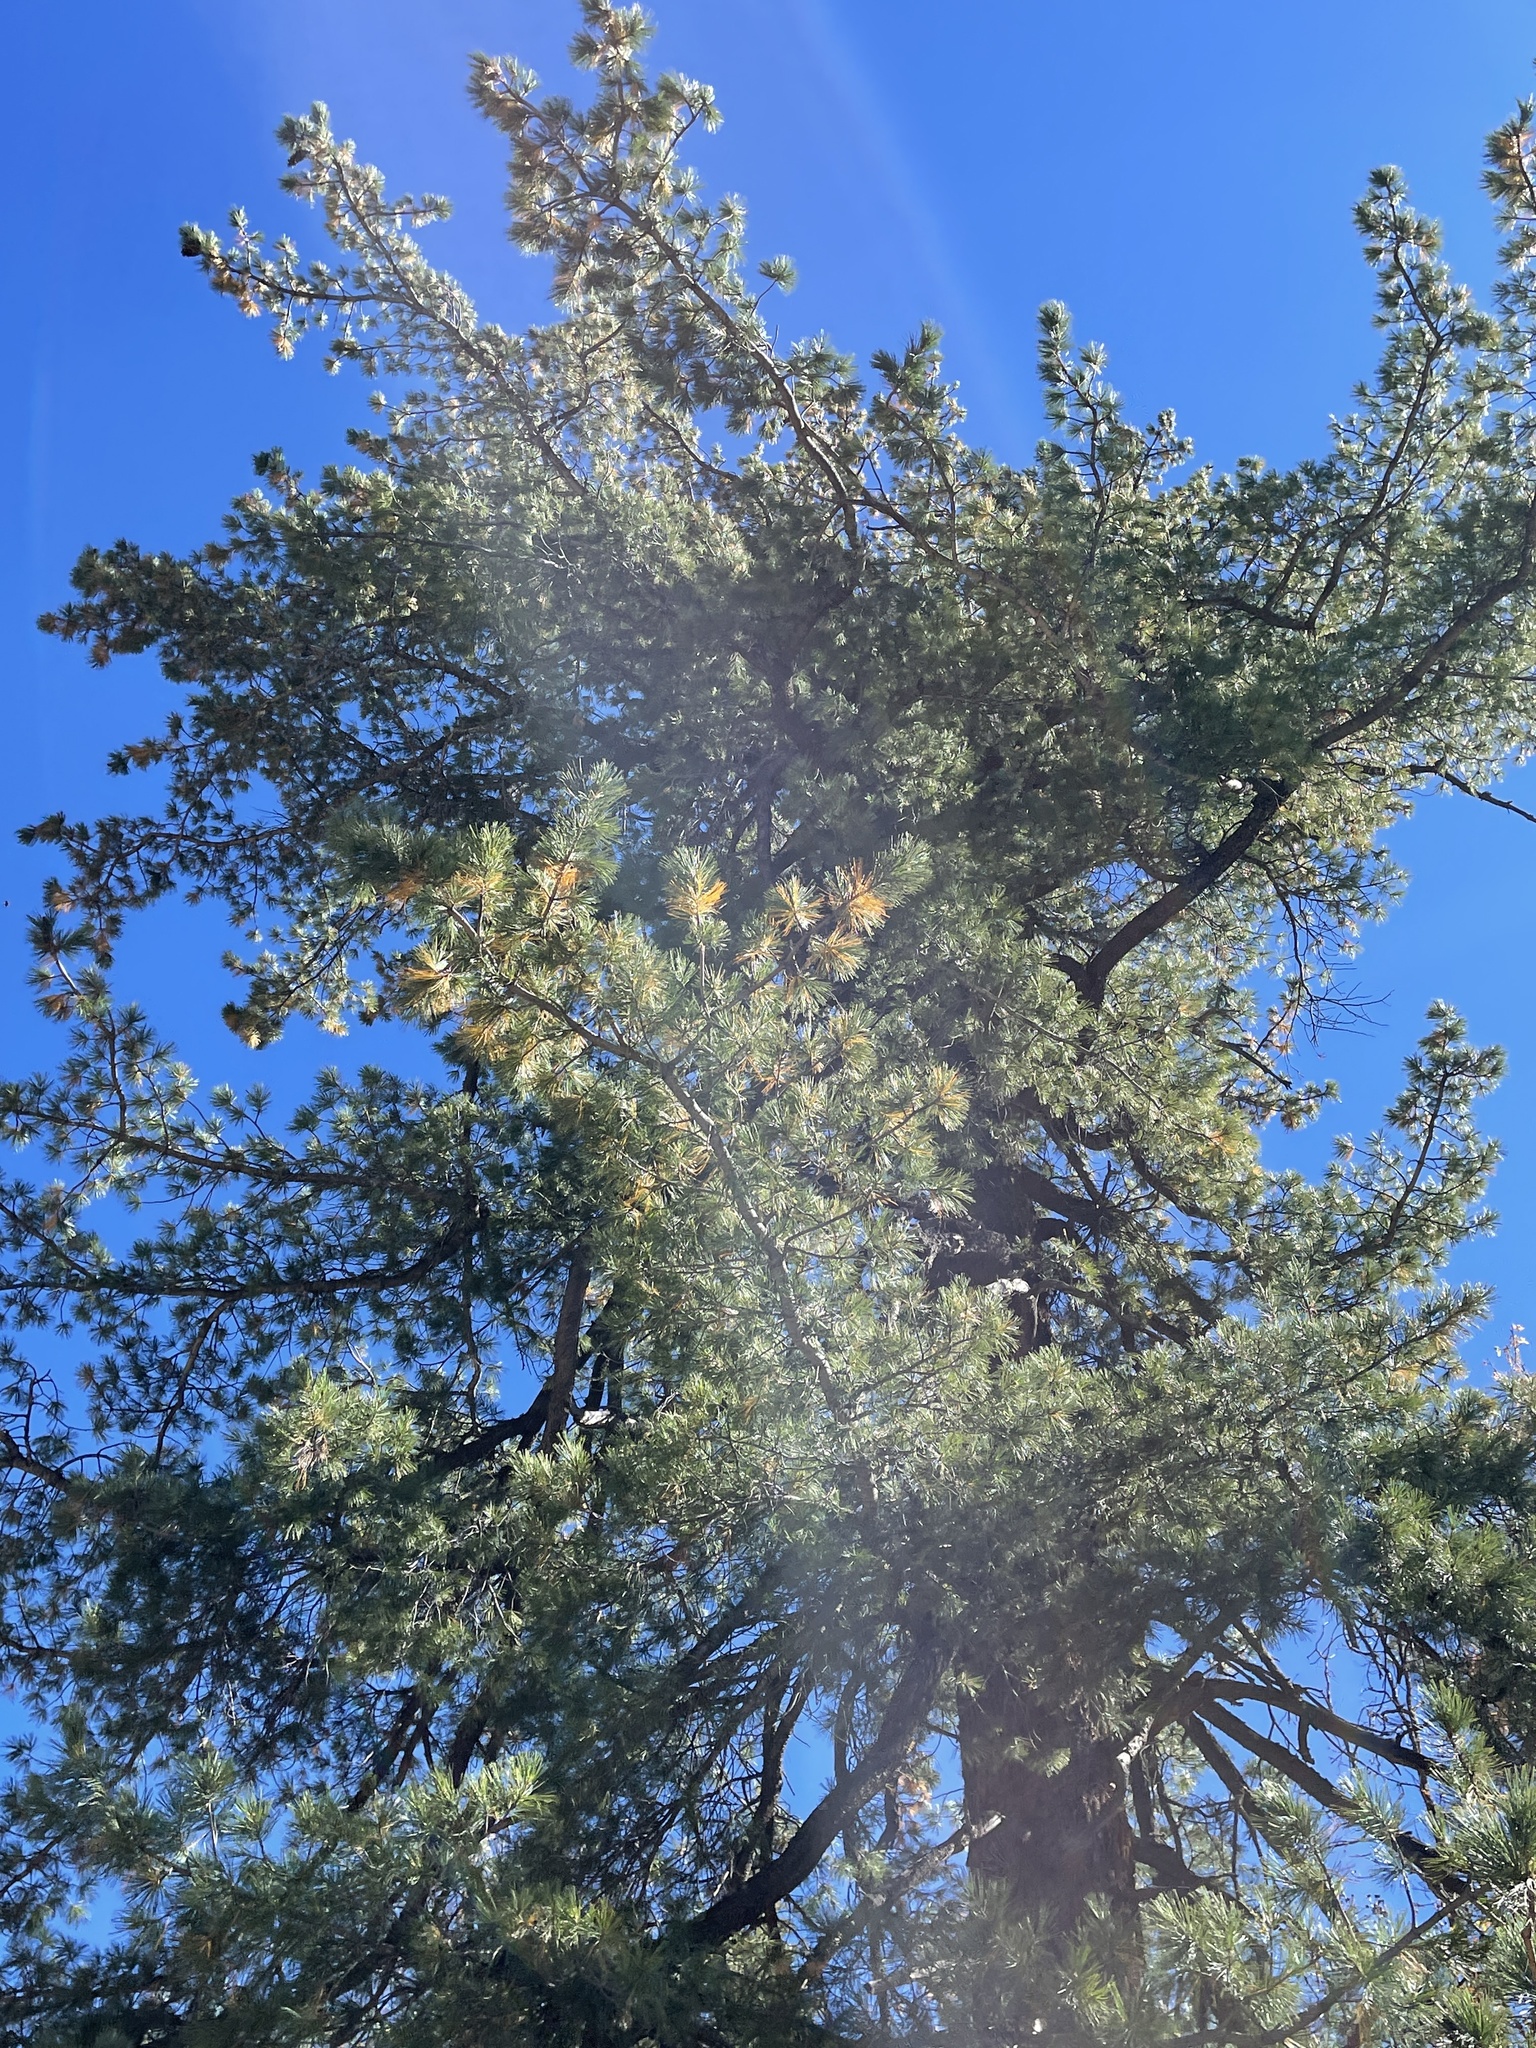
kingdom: Plantae
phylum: Tracheophyta
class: Pinopsida
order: Pinales
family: Pinaceae
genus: Pinus
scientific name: Pinus strobiformis
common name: Southwestern white pine
